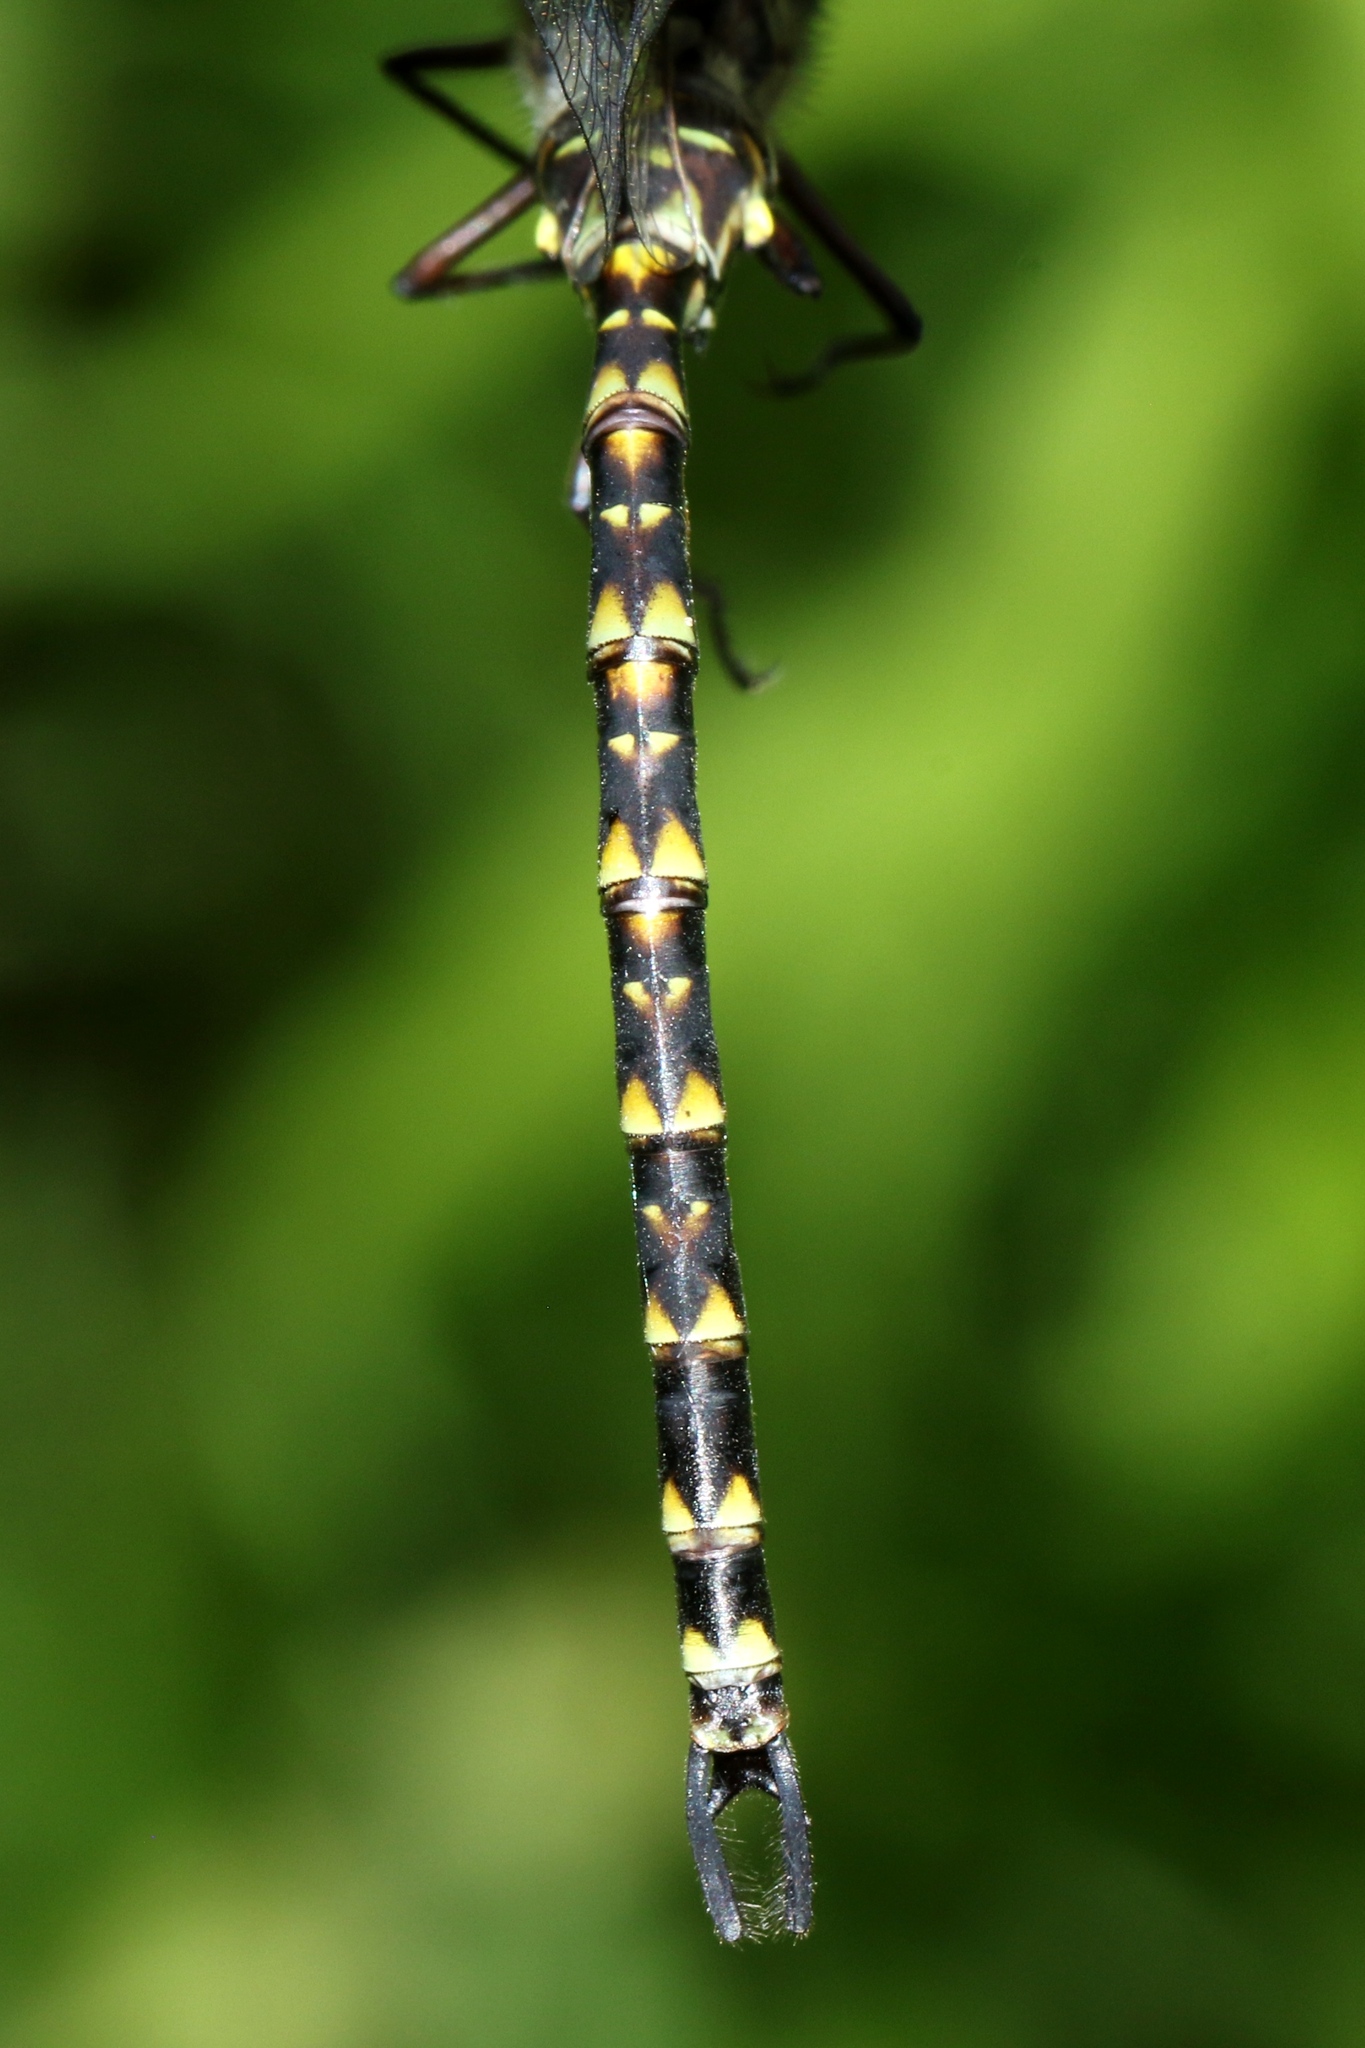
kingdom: Animalia
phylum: Arthropoda
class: Insecta
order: Odonata
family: Aeshnidae
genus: Gomphaeschna
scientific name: Gomphaeschna furcillata
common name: Harlequin darner
